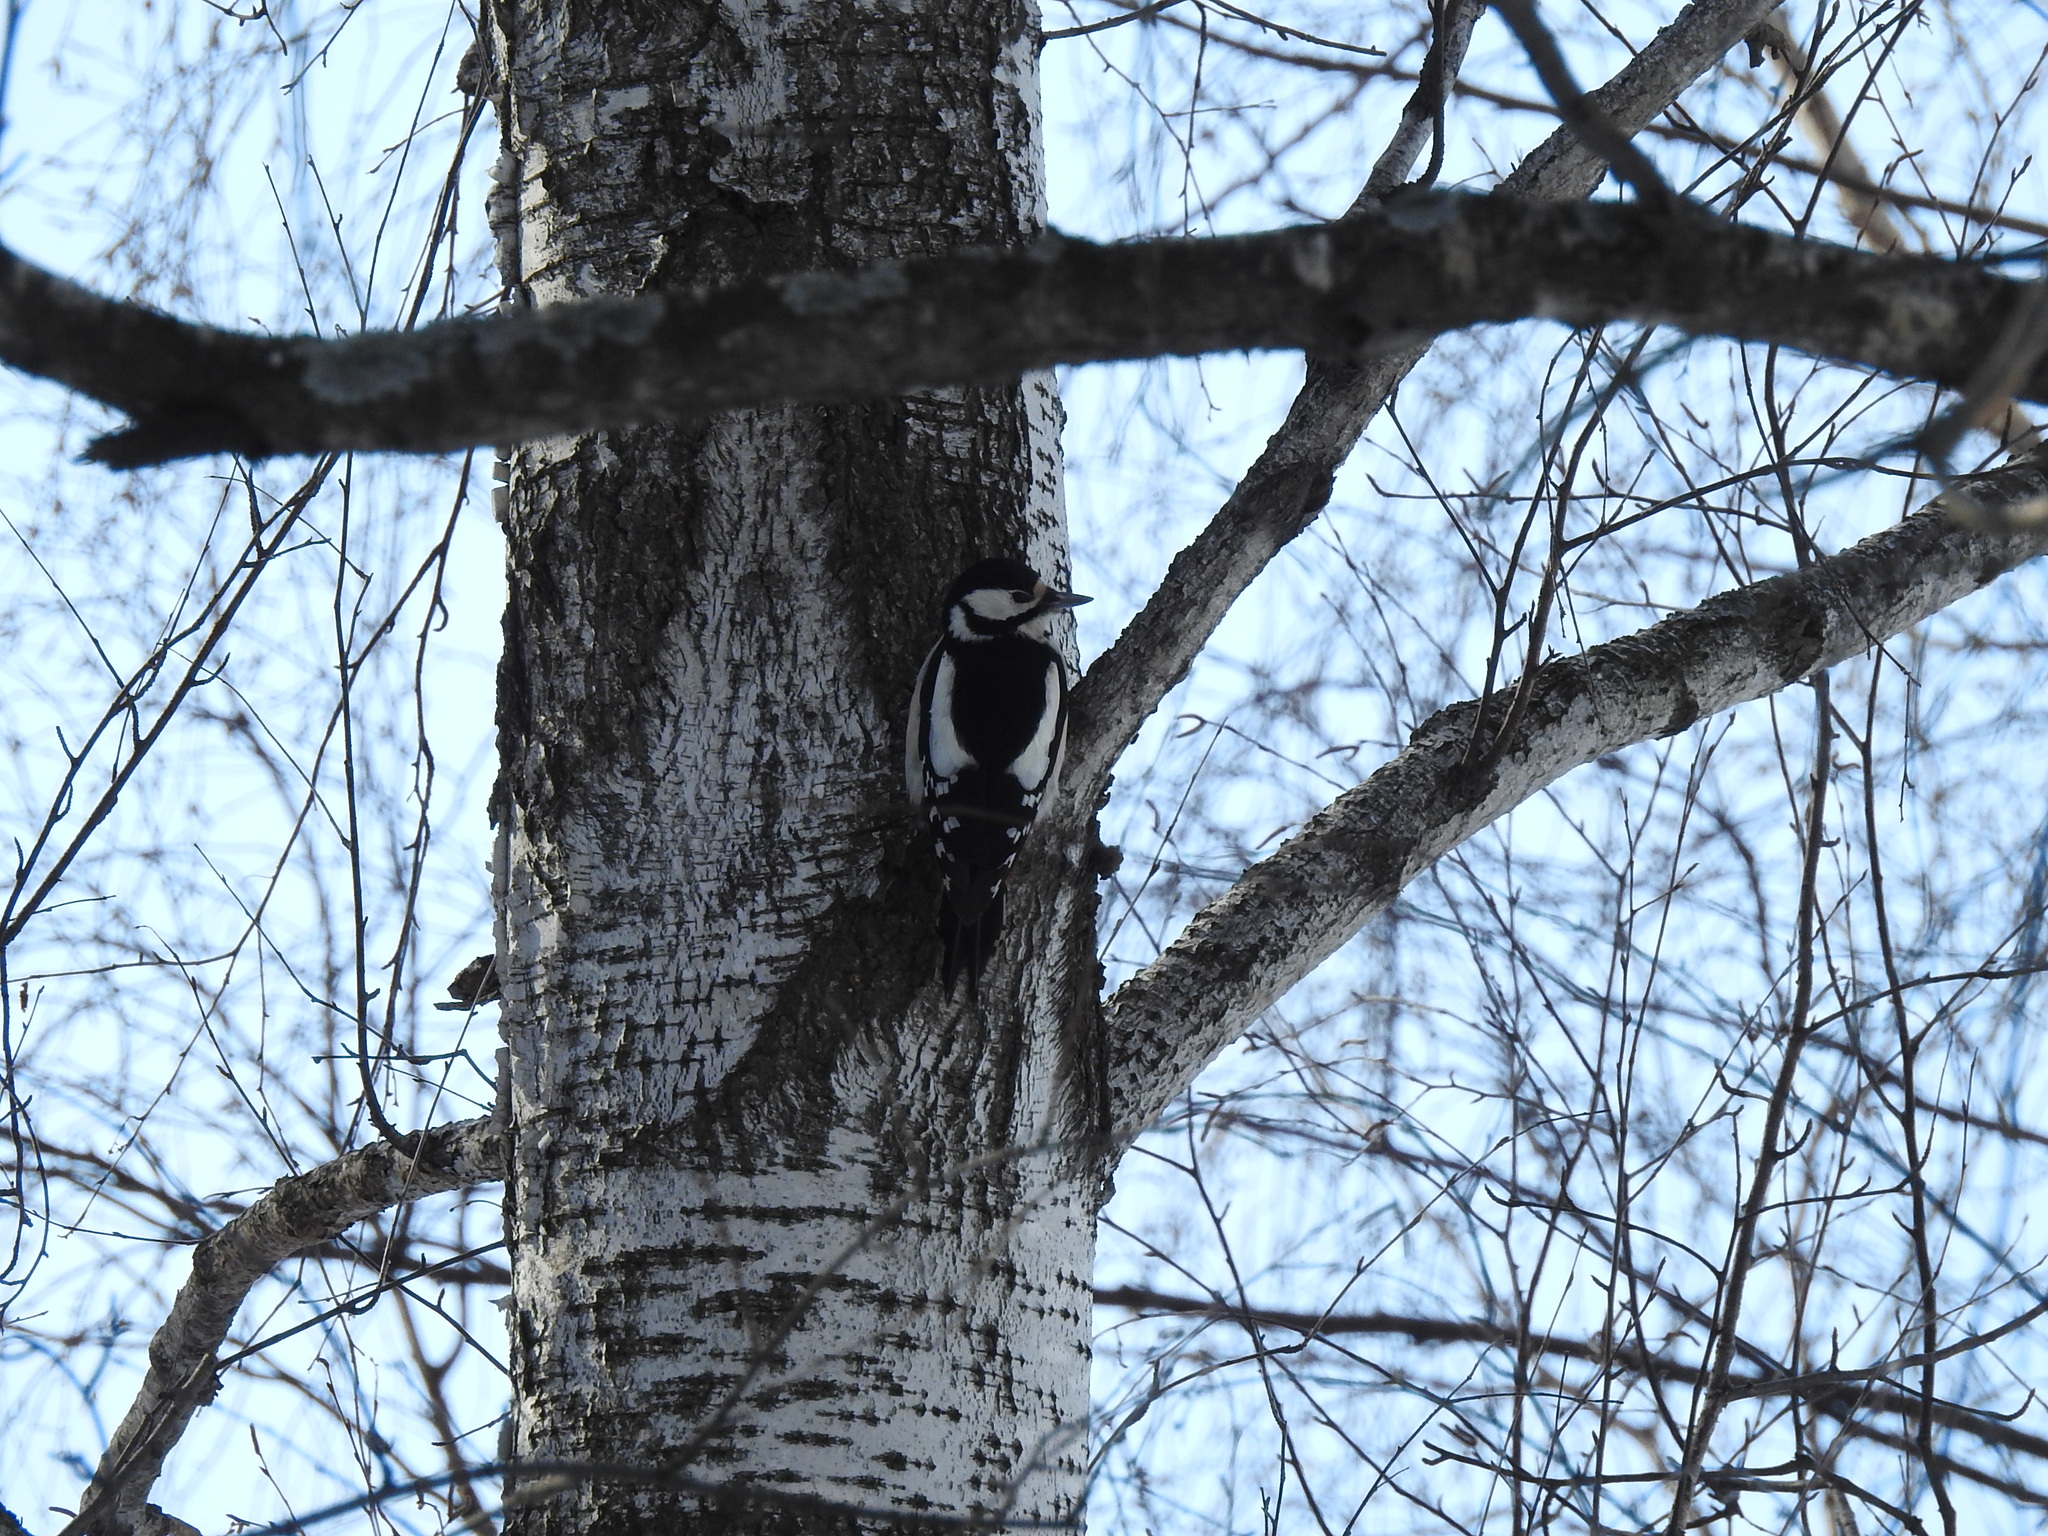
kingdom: Animalia
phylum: Chordata
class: Aves
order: Piciformes
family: Picidae
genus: Dendrocopos
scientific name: Dendrocopos major
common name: Great spotted woodpecker
